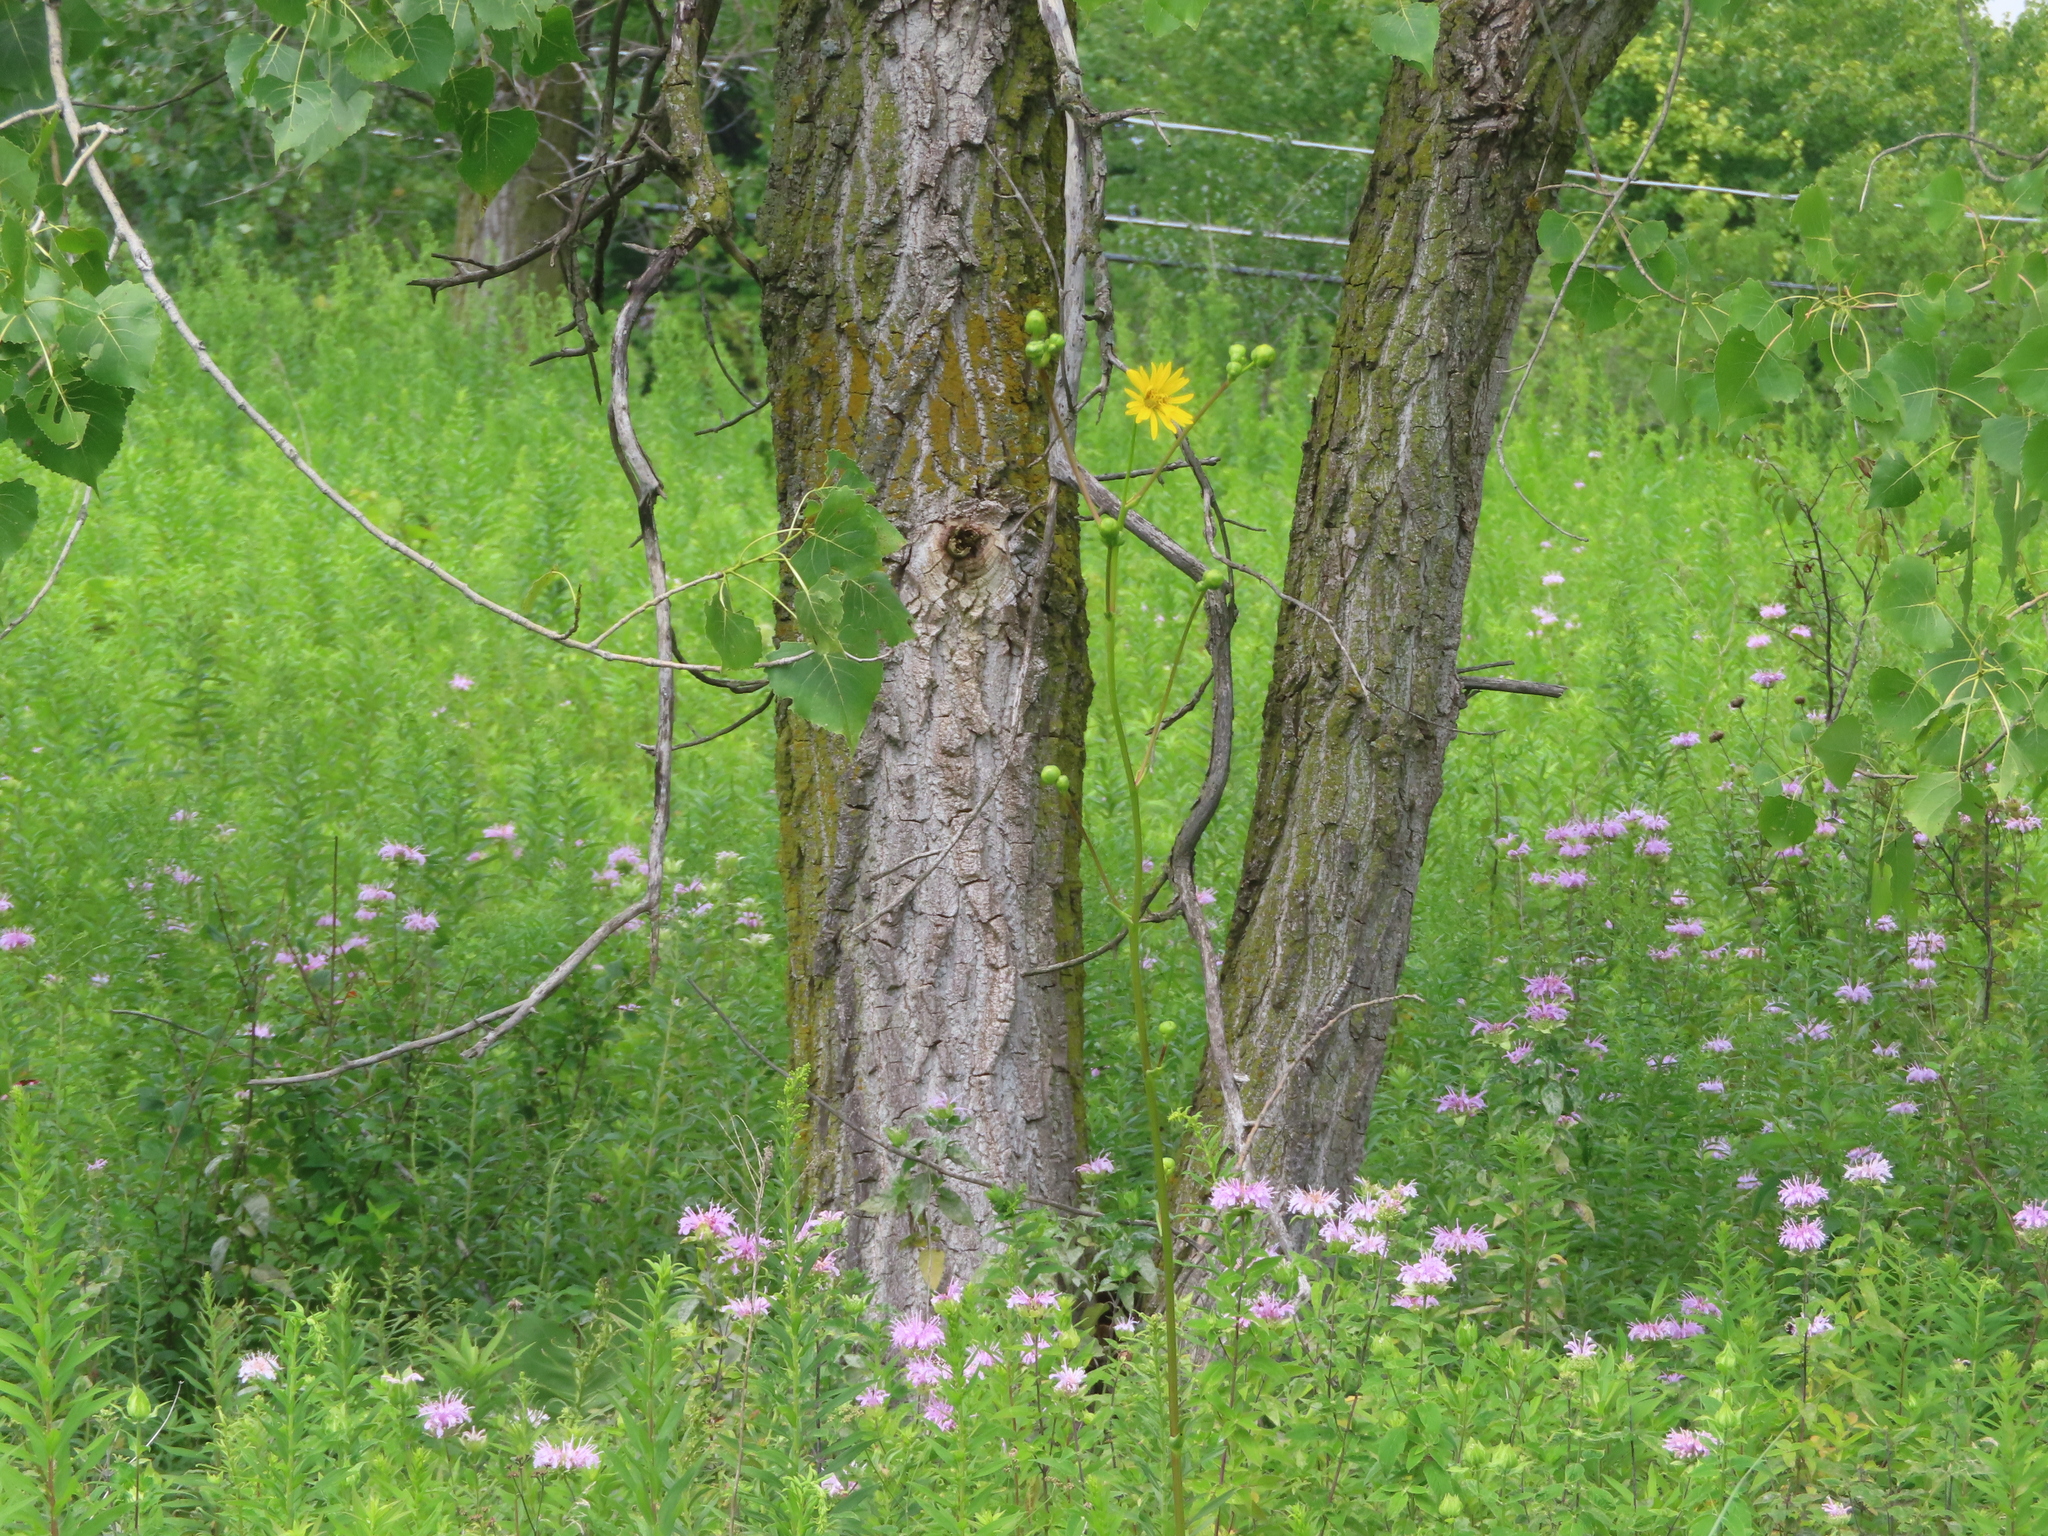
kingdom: Plantae
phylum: Tracheophyta
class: Magnoliopsida
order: Asterales
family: Asteraceae
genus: Silphium
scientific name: Silphium terebinthinaceum
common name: Basal-leaf rosinweed
